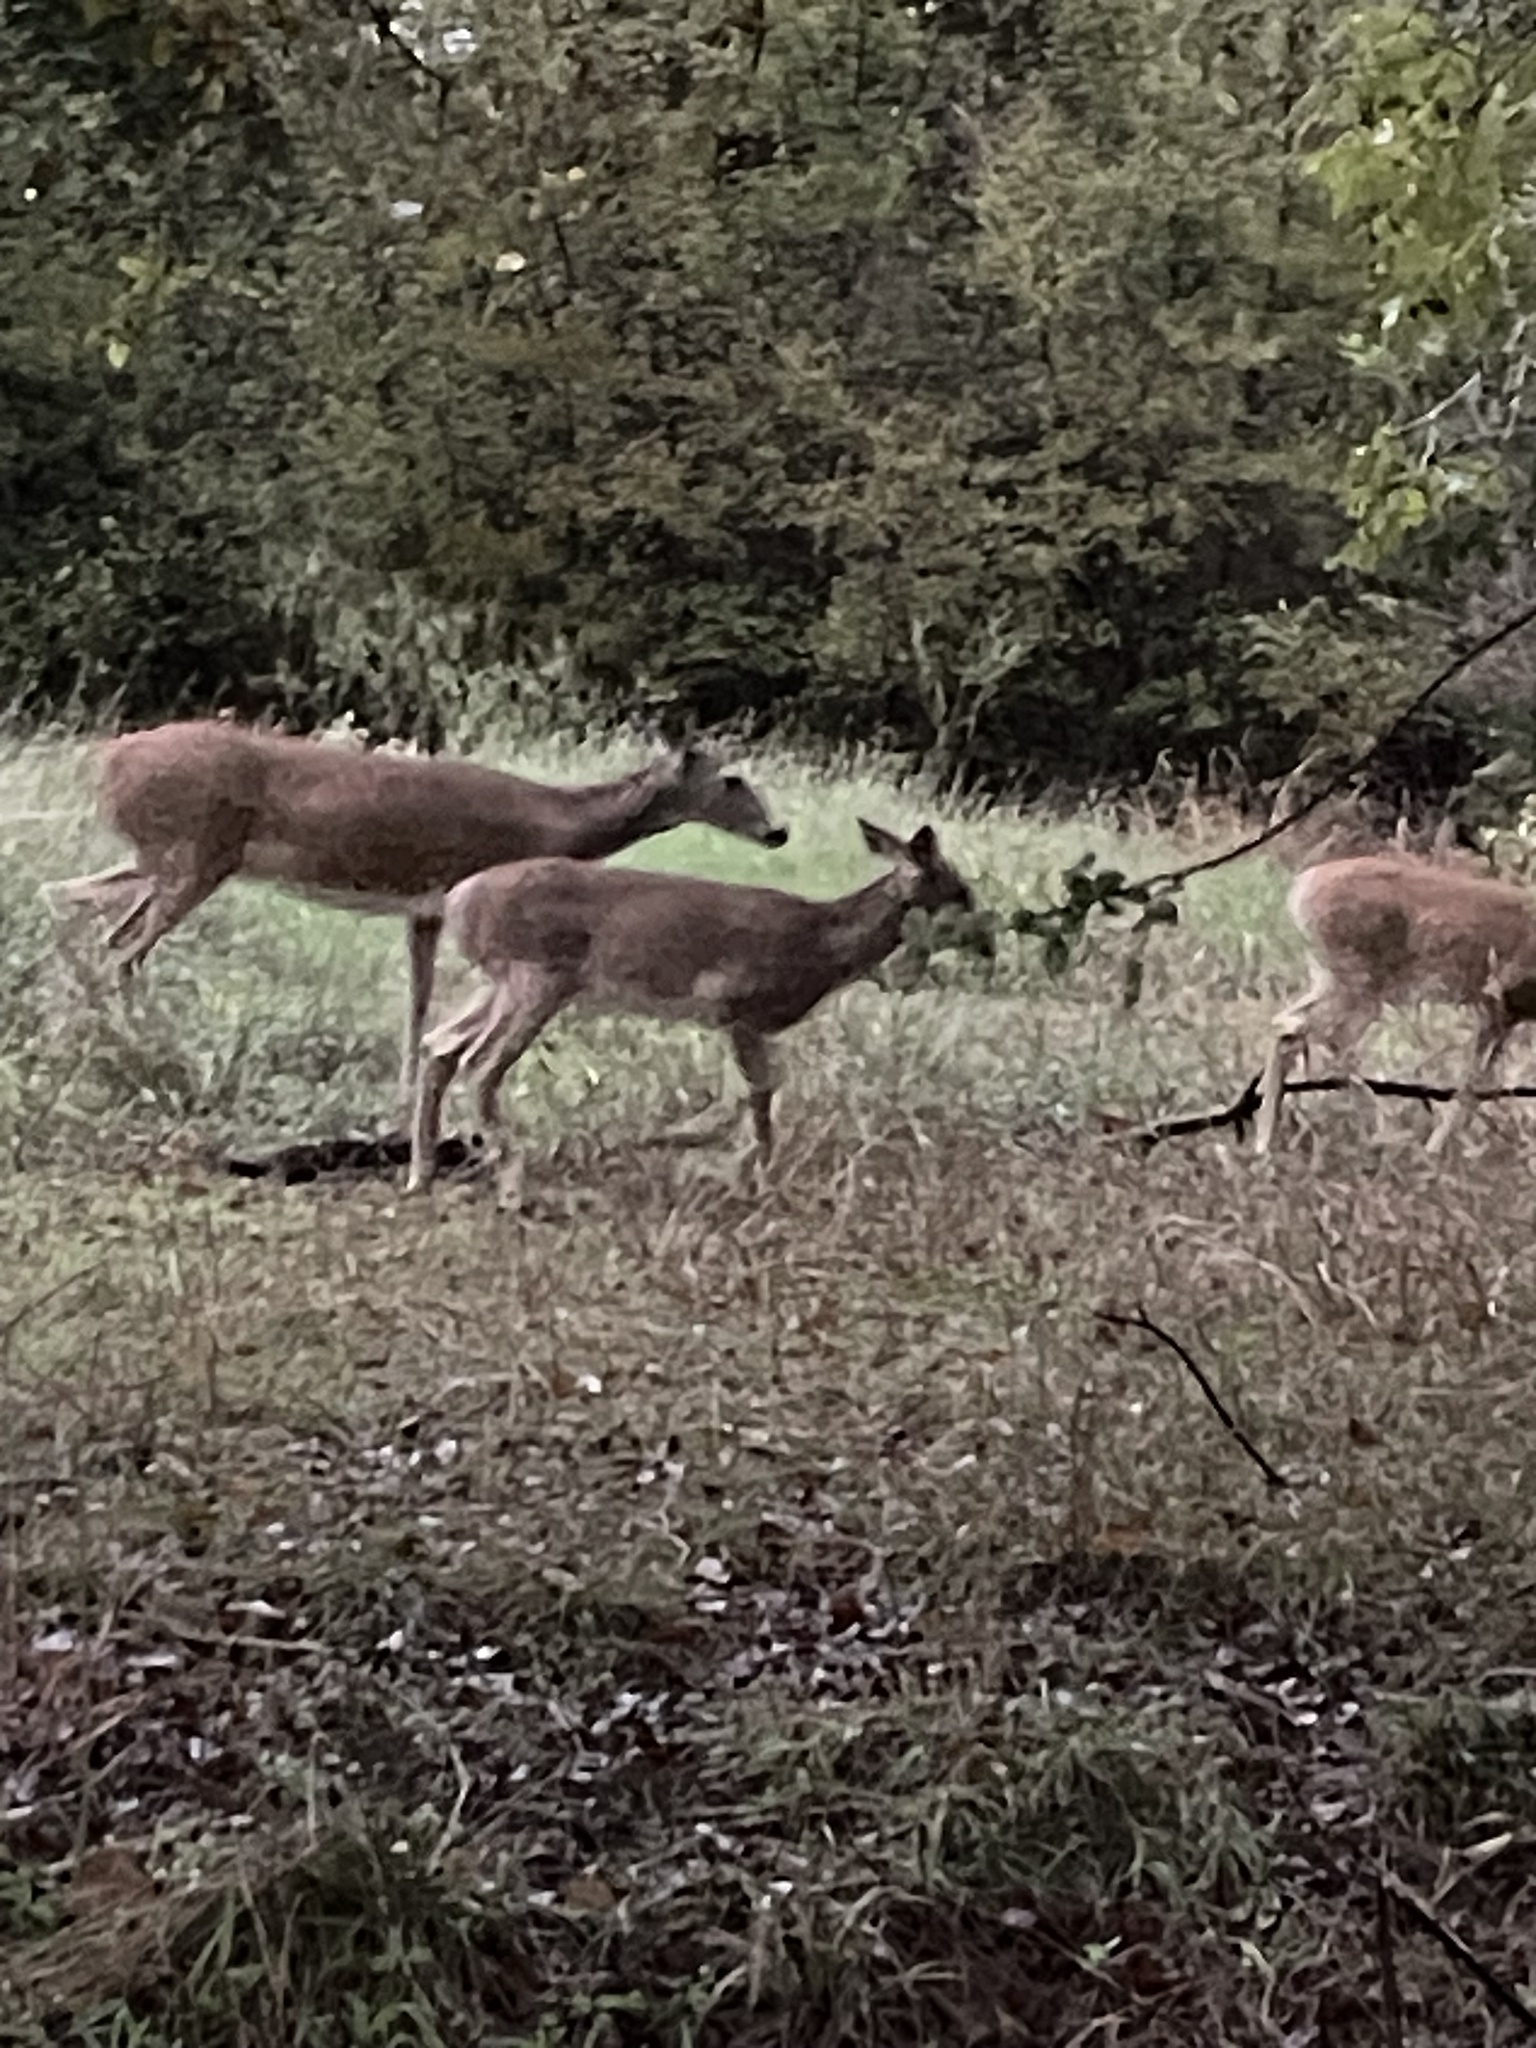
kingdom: Animalia
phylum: Chordata
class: Mammalia
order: Artiodactyla
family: Cervidae
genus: Odocoileus
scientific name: Odocoileus virginianus
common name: White-tailed deer
